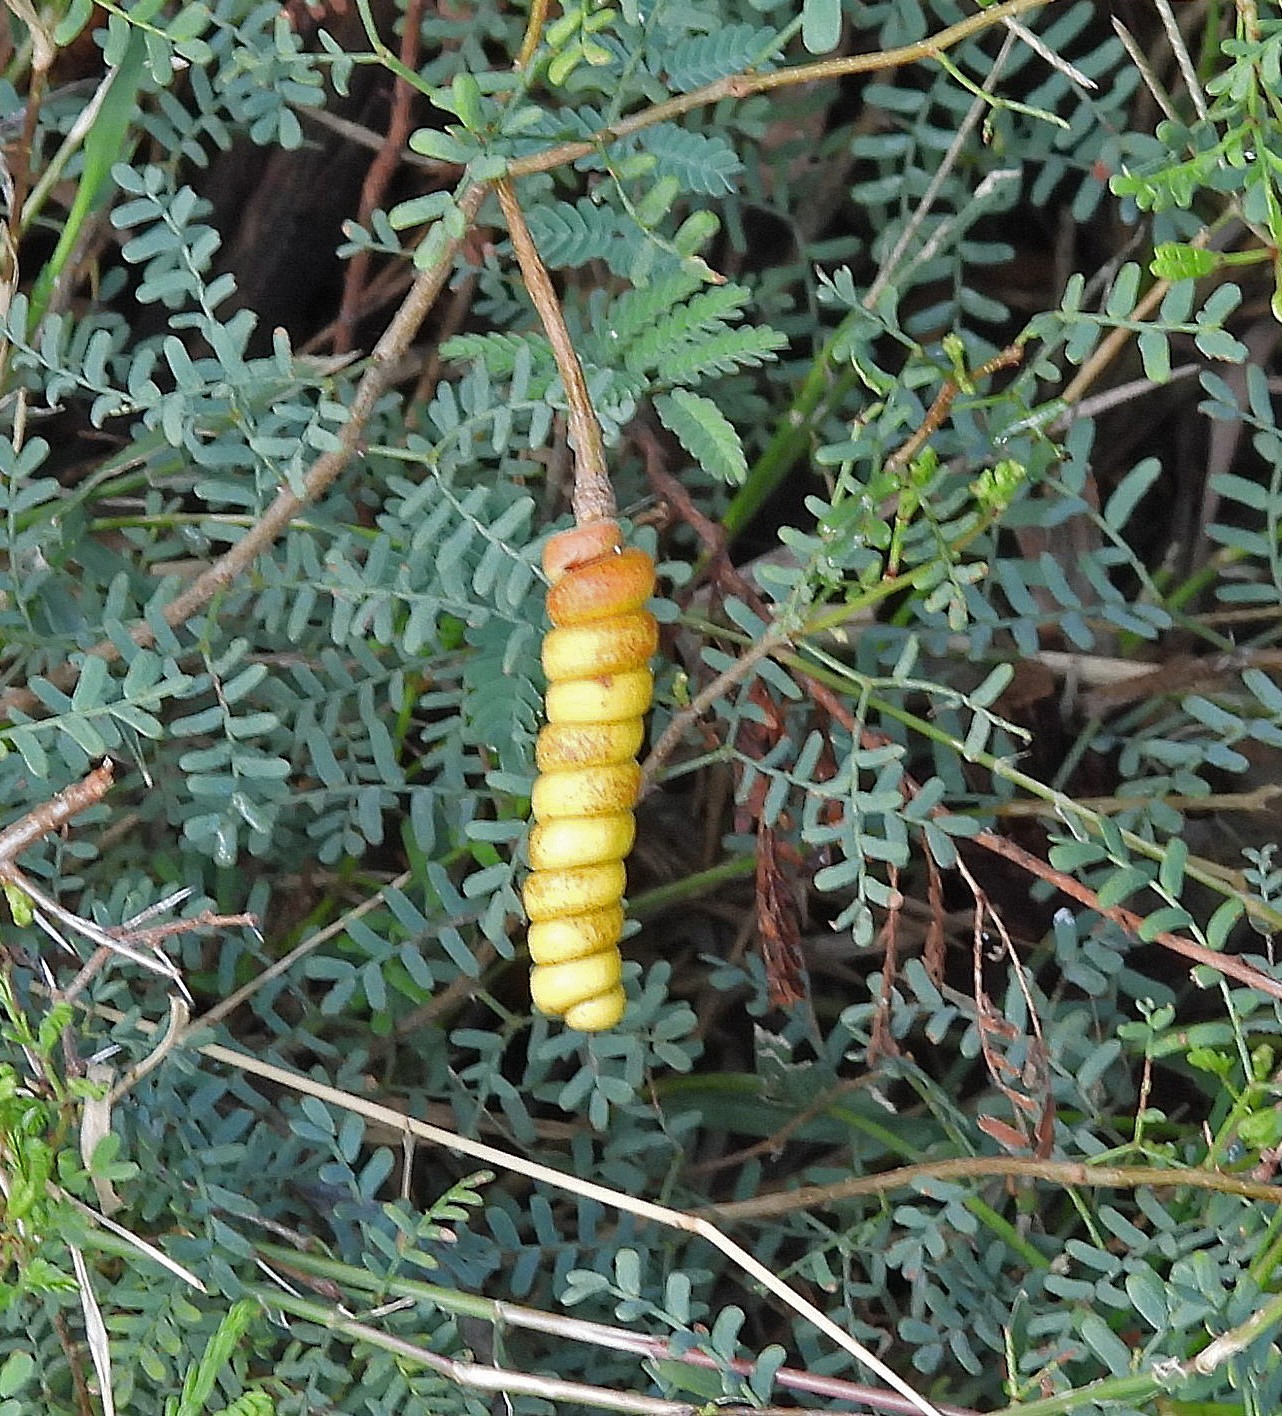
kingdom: Plantae
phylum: Tracheophyta
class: Magnoliopsida
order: Fabales
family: Fabaceae
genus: Prosopis
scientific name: Prosopis strombulifera
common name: Creeping mesquite
